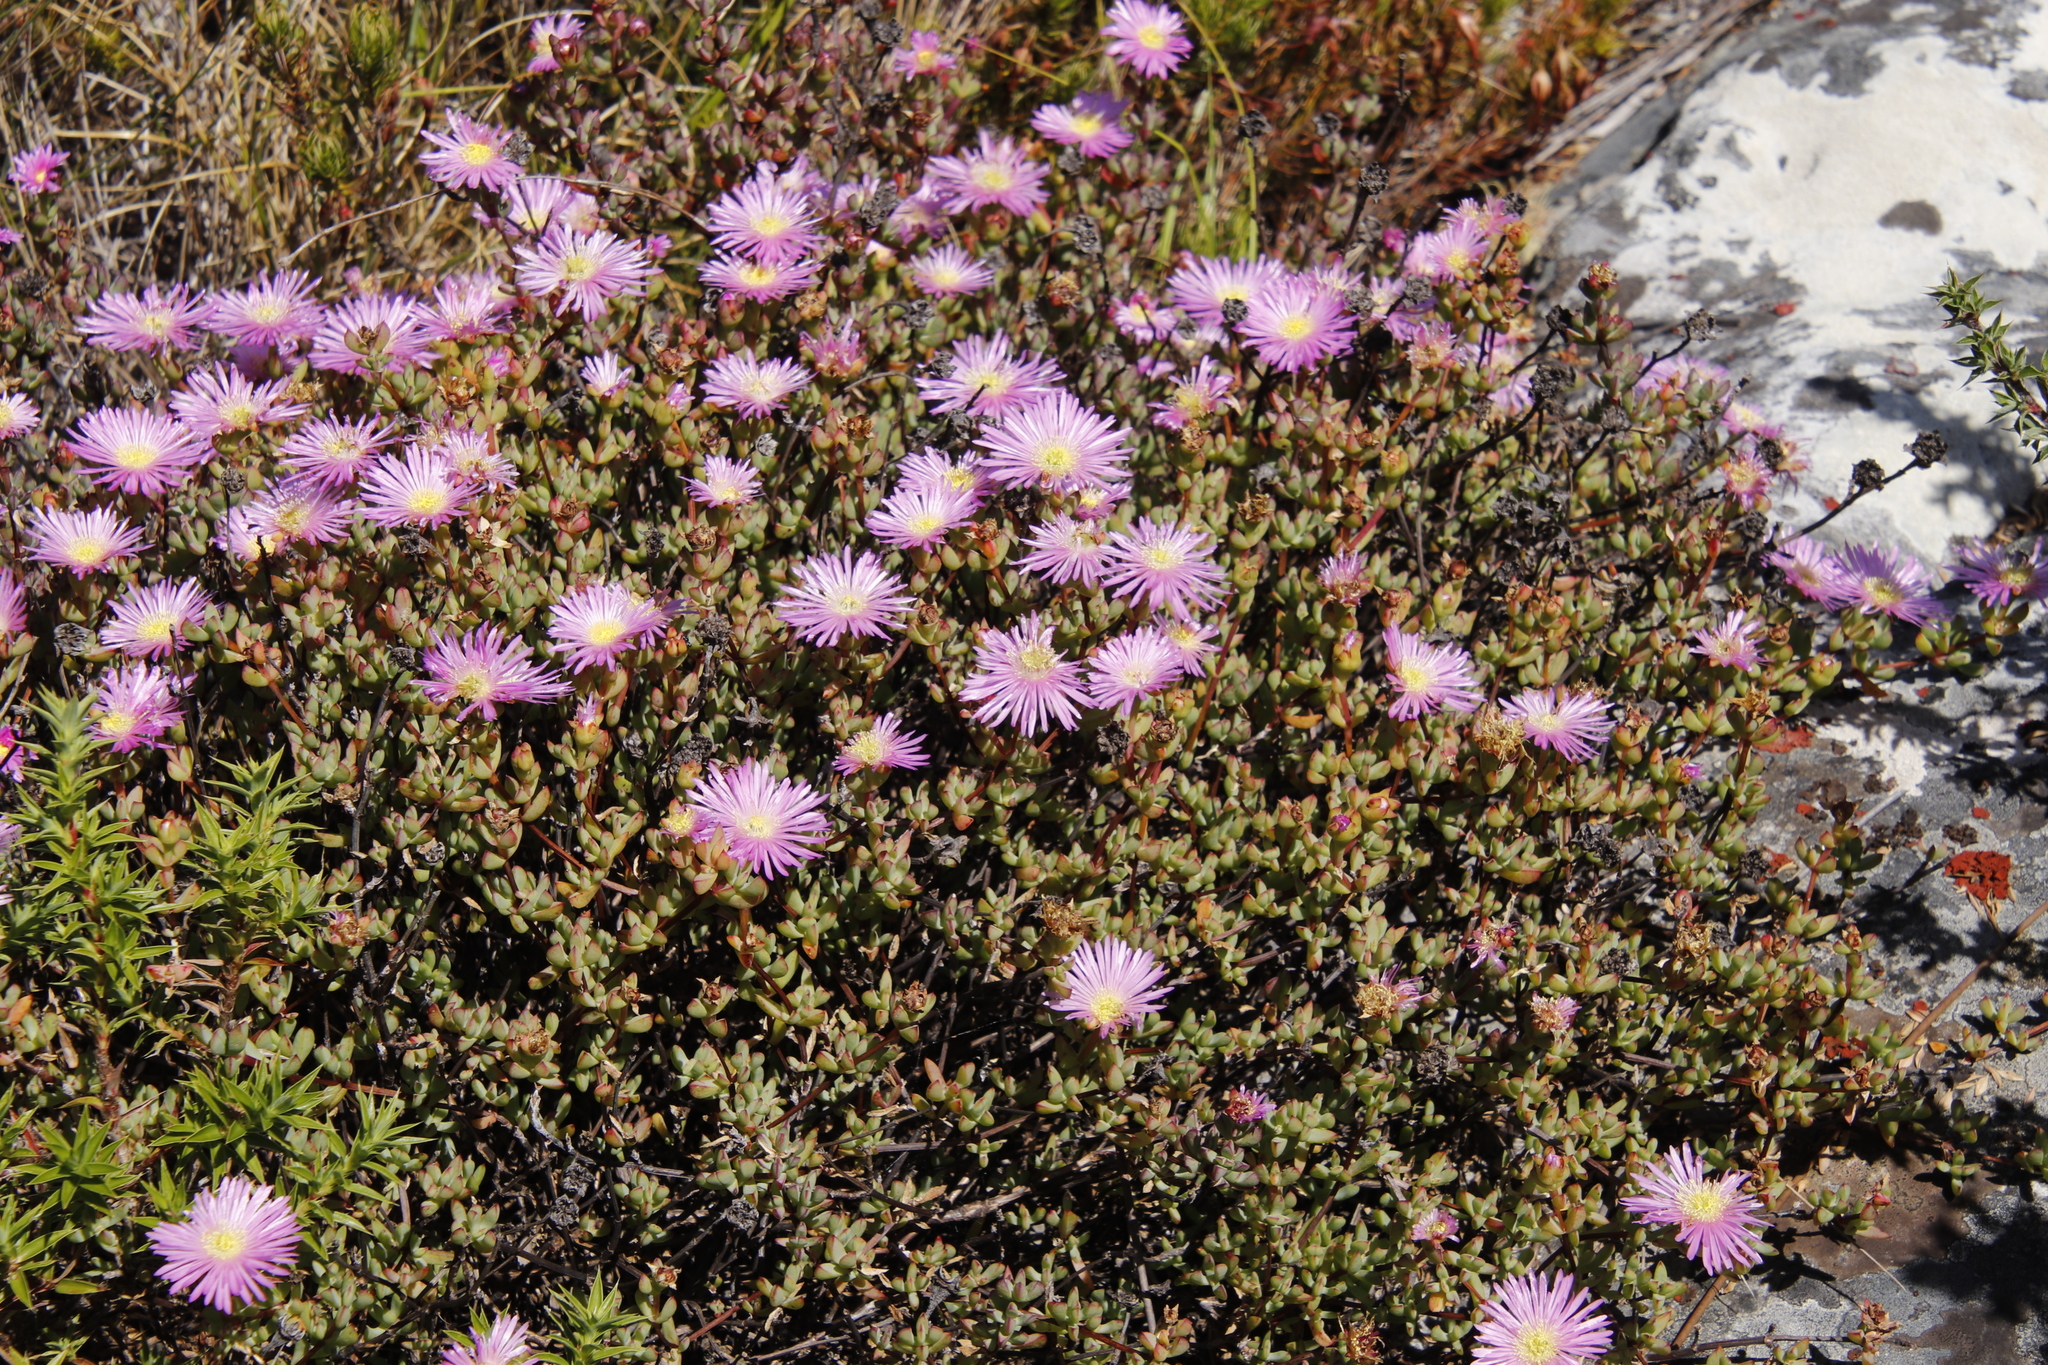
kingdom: Plantae
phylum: Tracheophyta
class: Magnoliopsida
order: Caryophyllales
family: Aizoaceae
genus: Oscularia
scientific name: Oscularia falciformis
